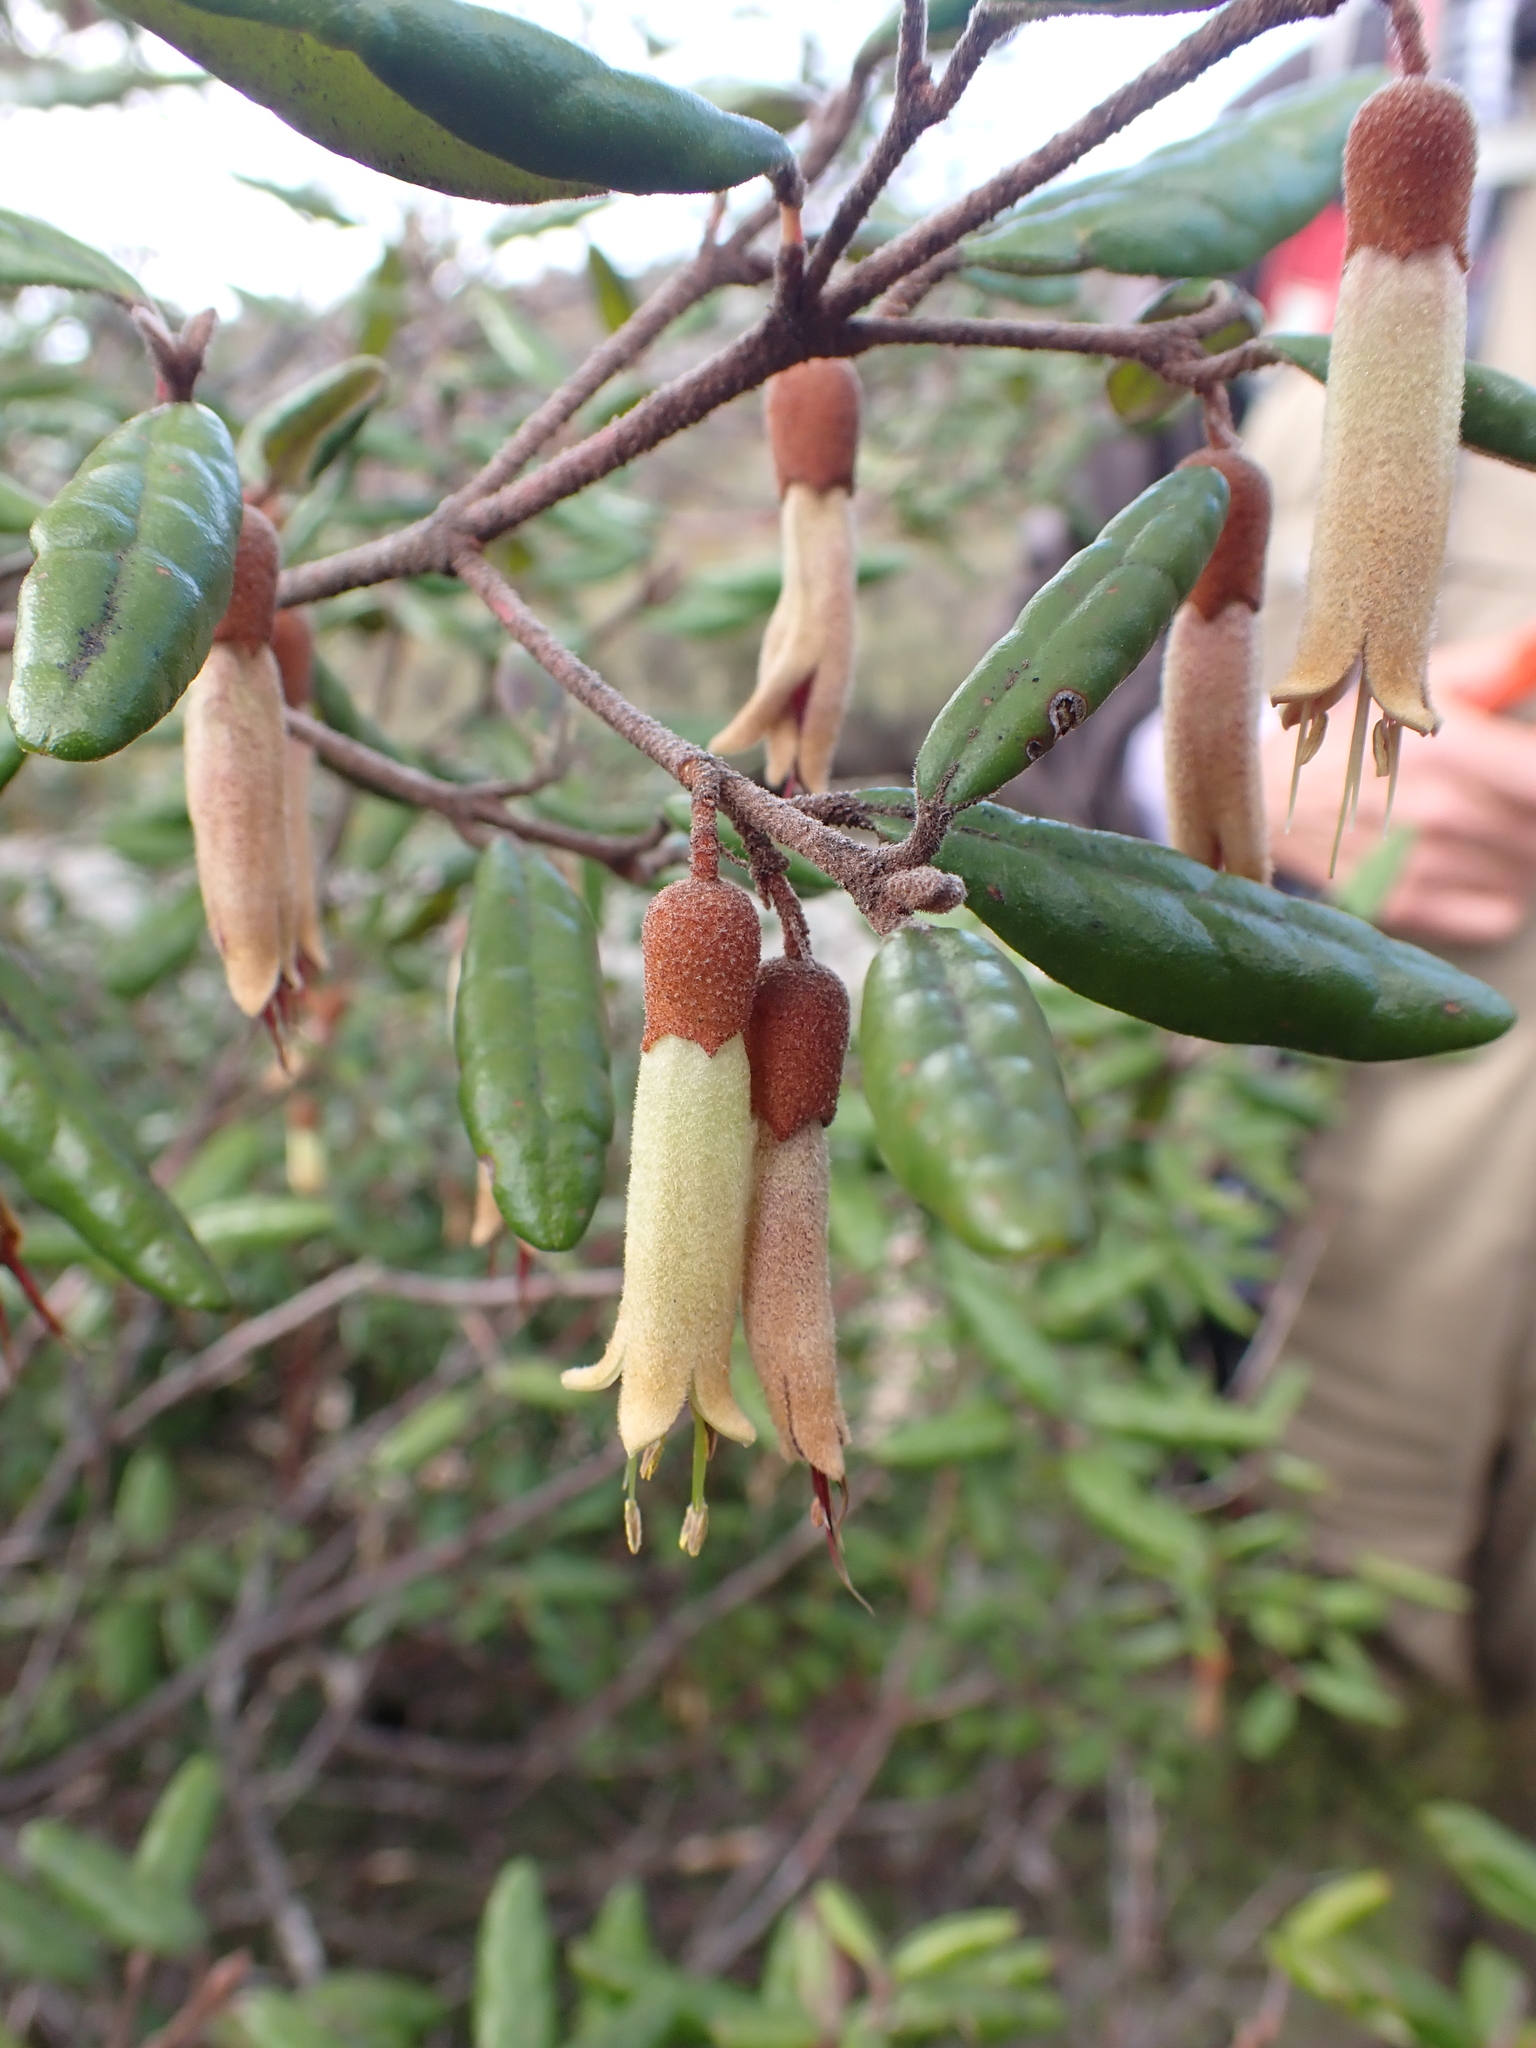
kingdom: Plantae
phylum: Tracheophyta
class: Magnoliopsida
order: Sapindales
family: Rutaceae
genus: Correa
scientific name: Correa lawrenceana
